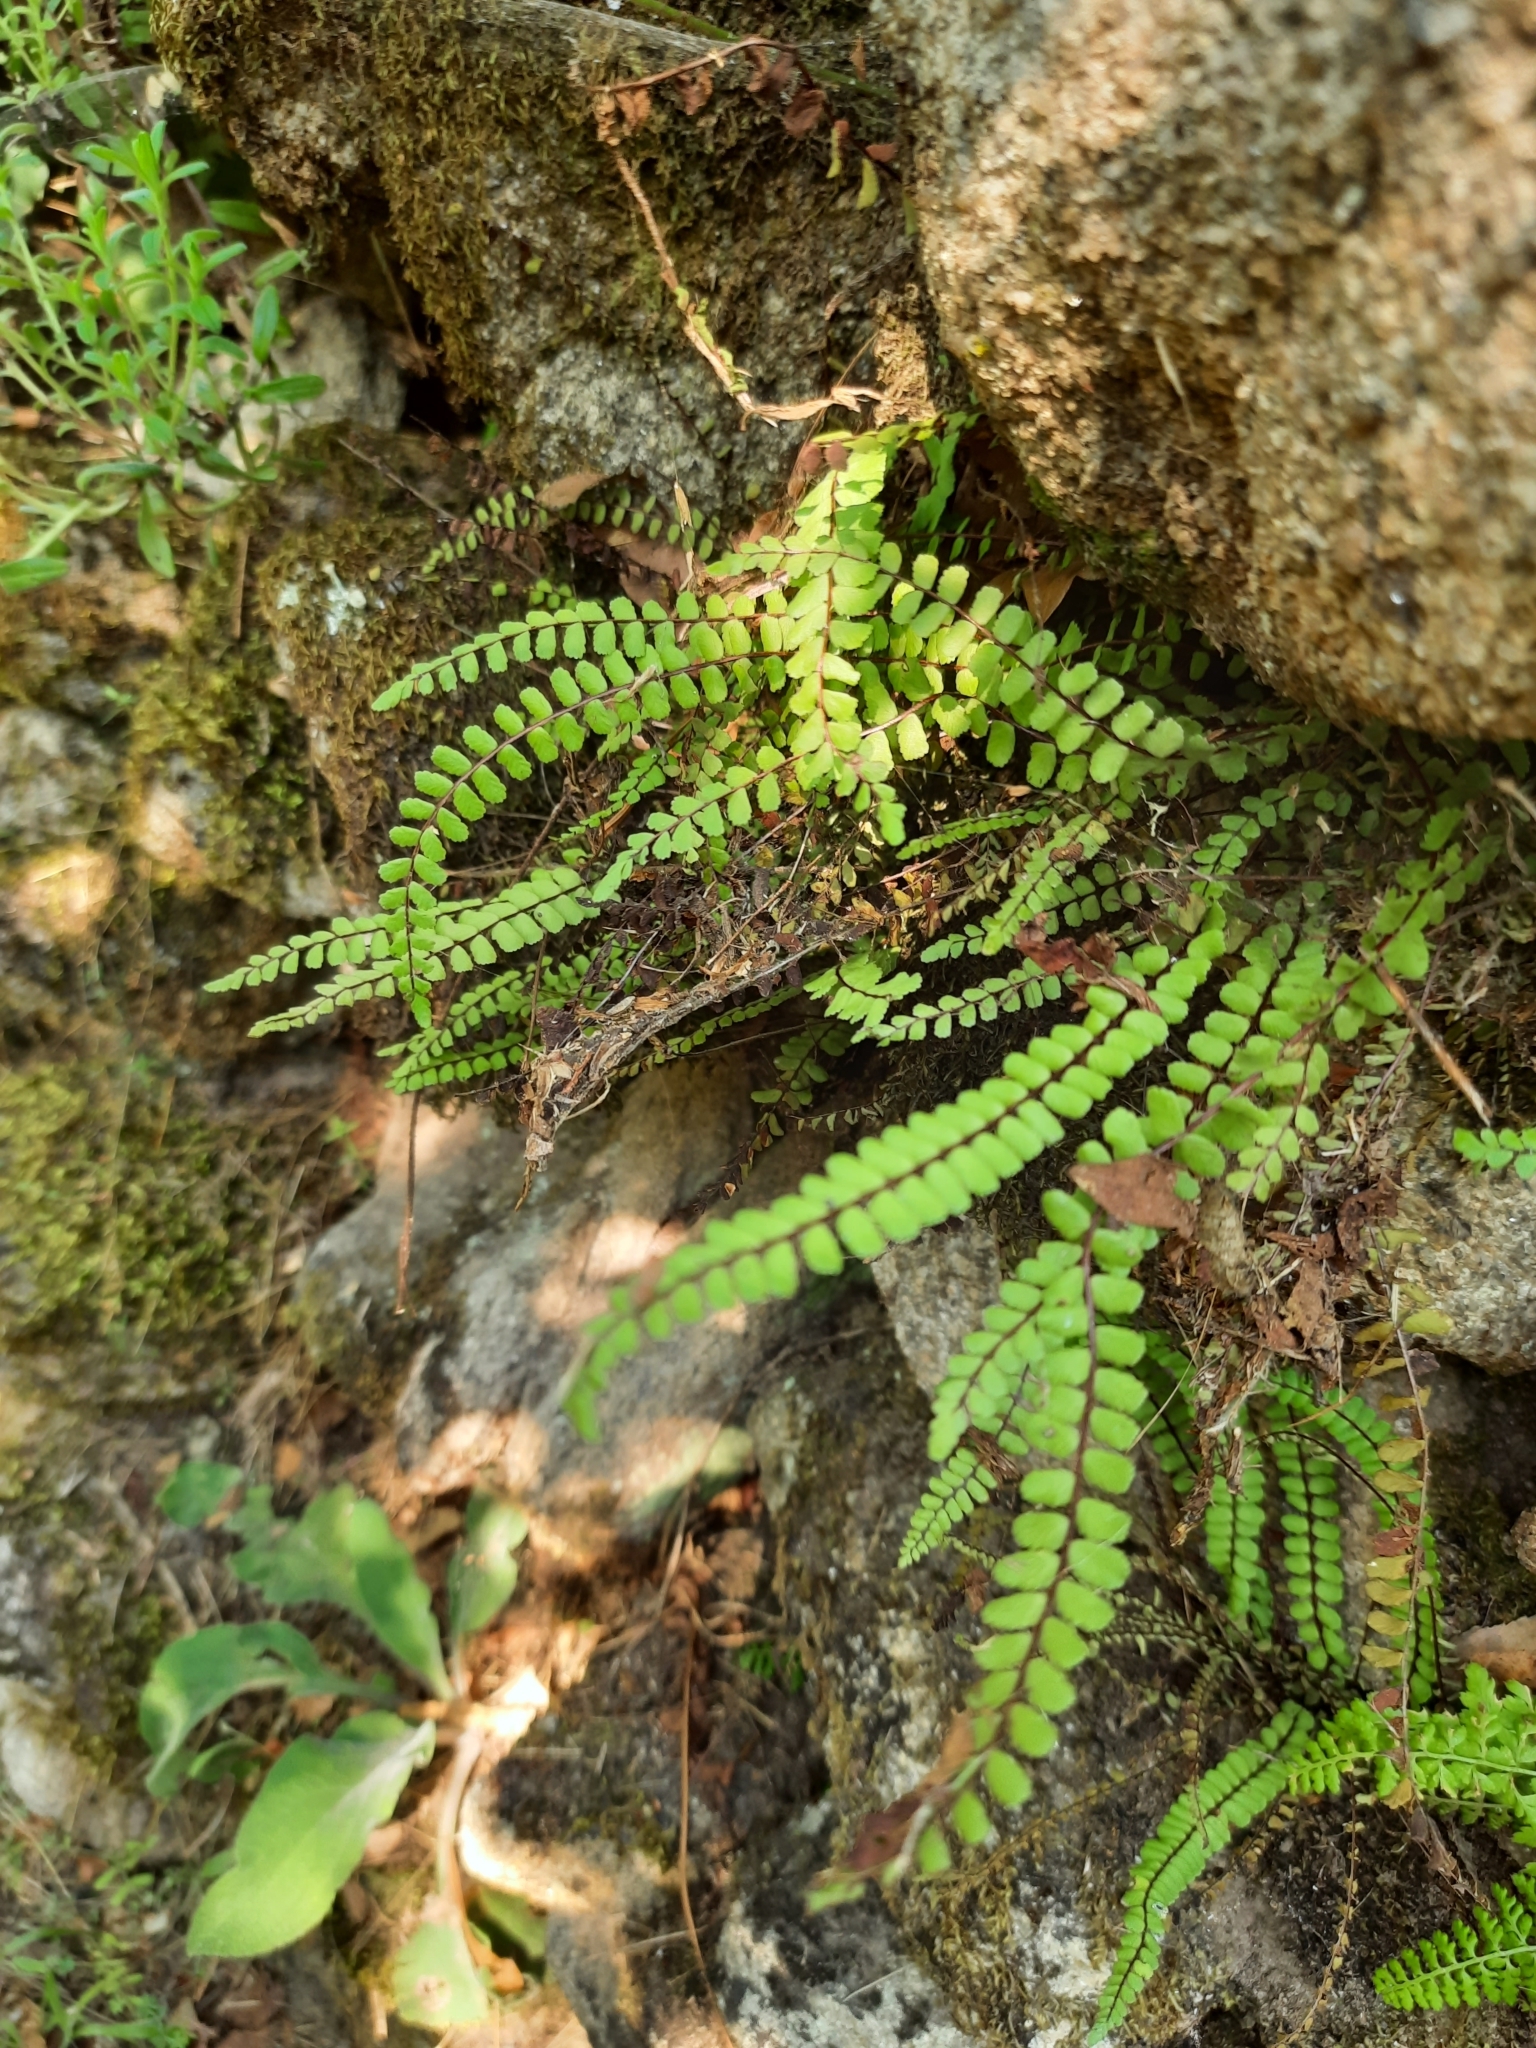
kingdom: Plantae
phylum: Tracheophyta
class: Polypodiopsida
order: Polypodiales
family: Aspleniaceae
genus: Asplenium
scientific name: Asplenium trichomanes
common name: Maidenhair spleenwort
